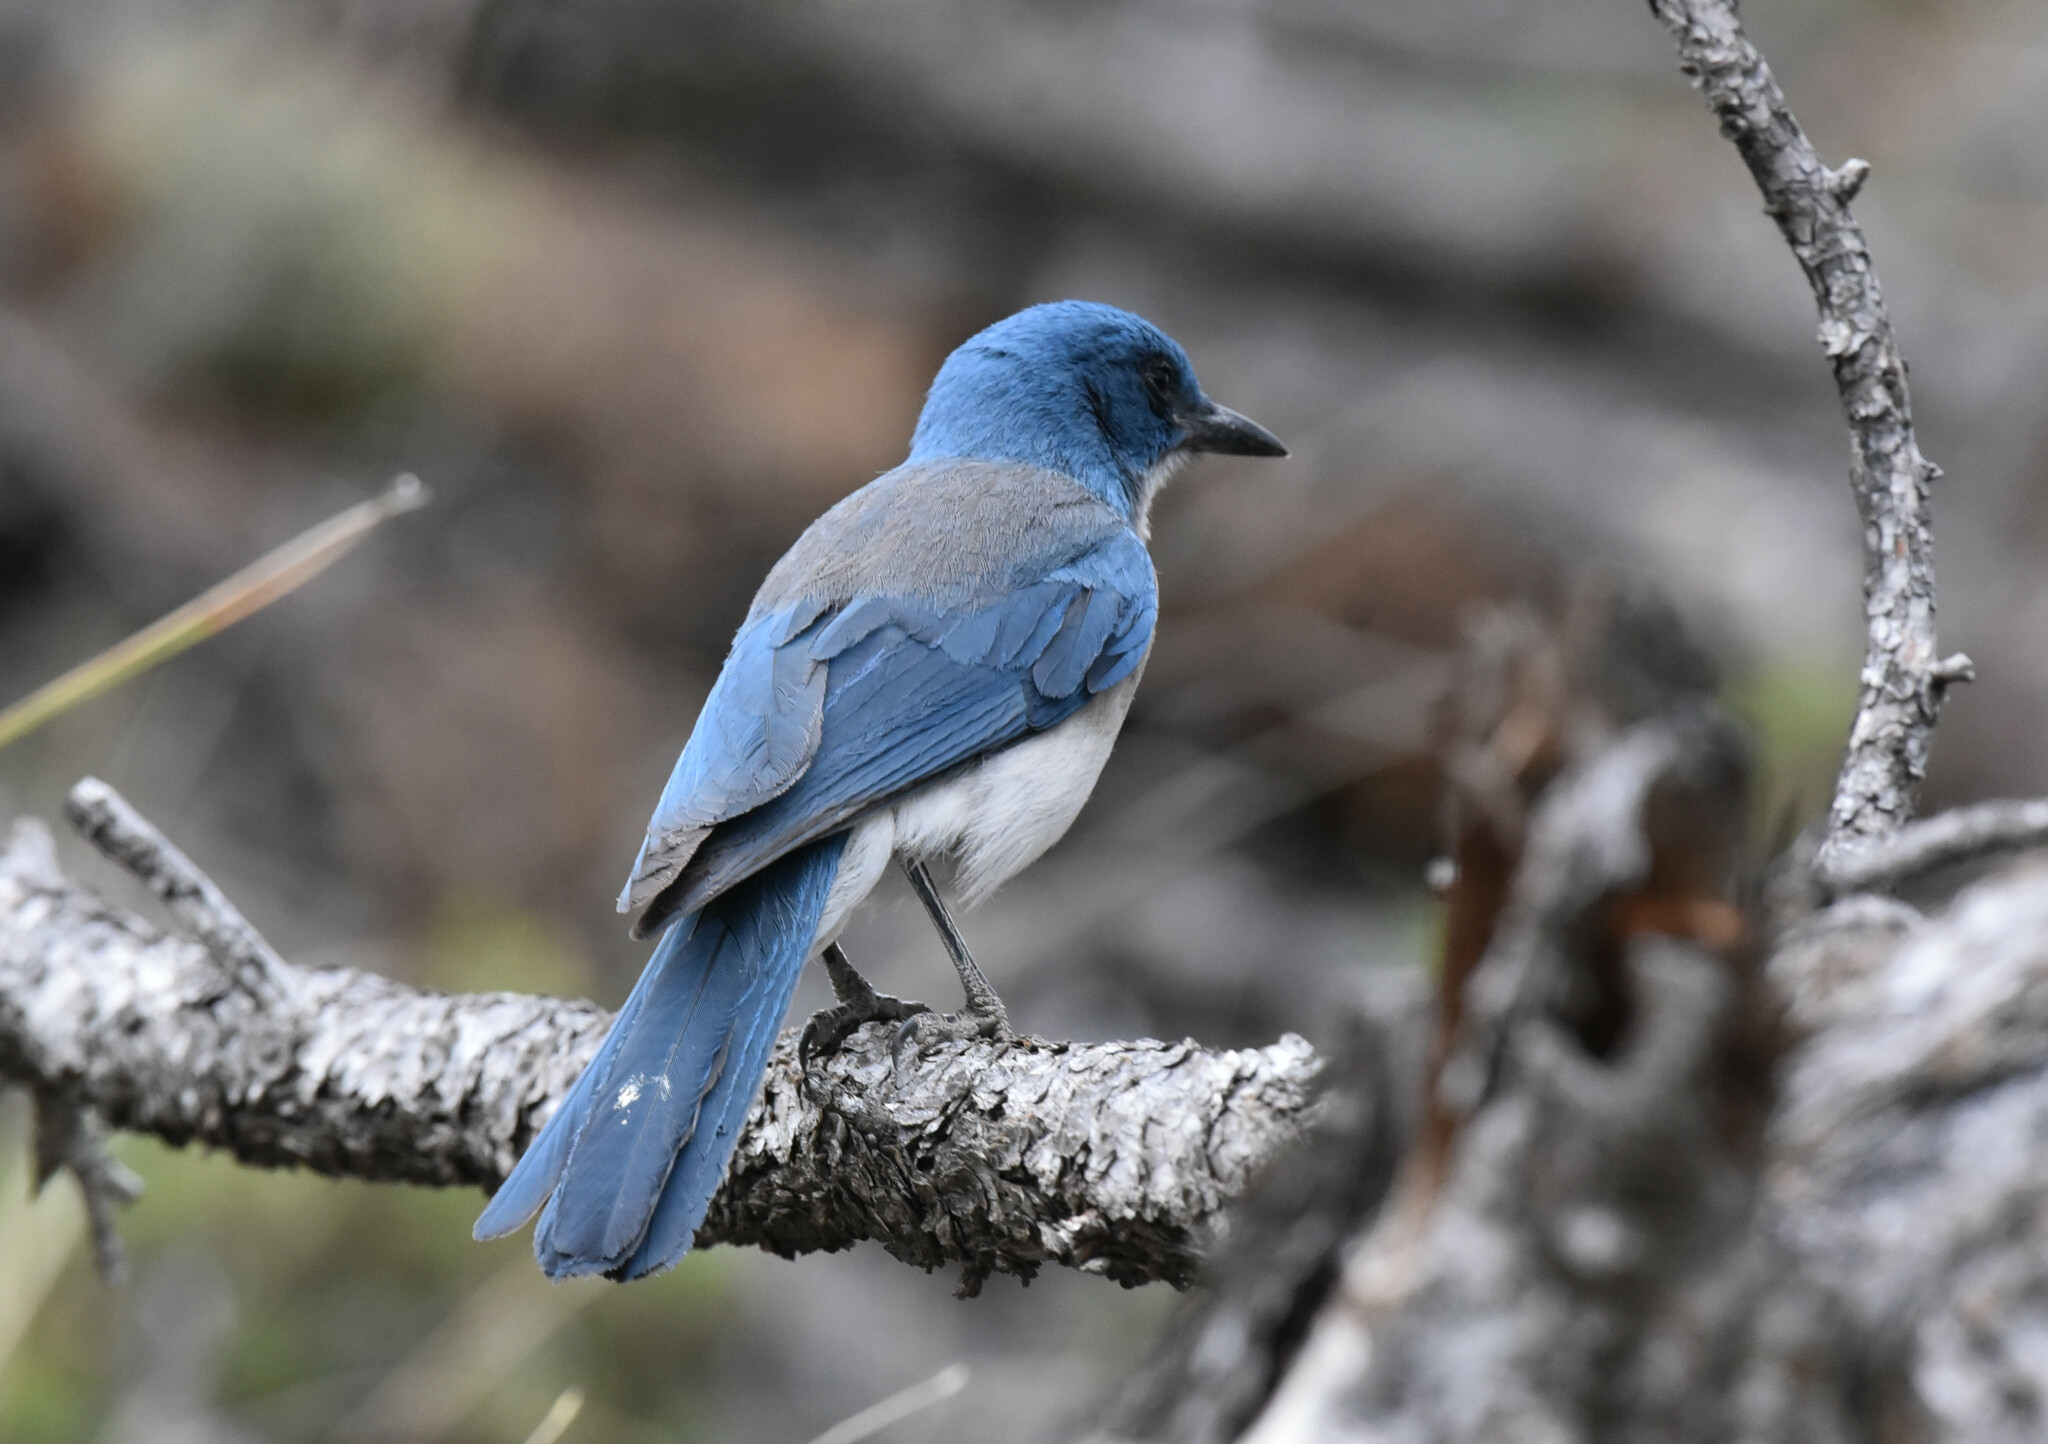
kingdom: Animalia
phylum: Chordata
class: Aves
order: Passeriformes
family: Corvidae
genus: Aphelocoma
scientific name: Aphelocoma wollweberi
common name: Mexican jay
